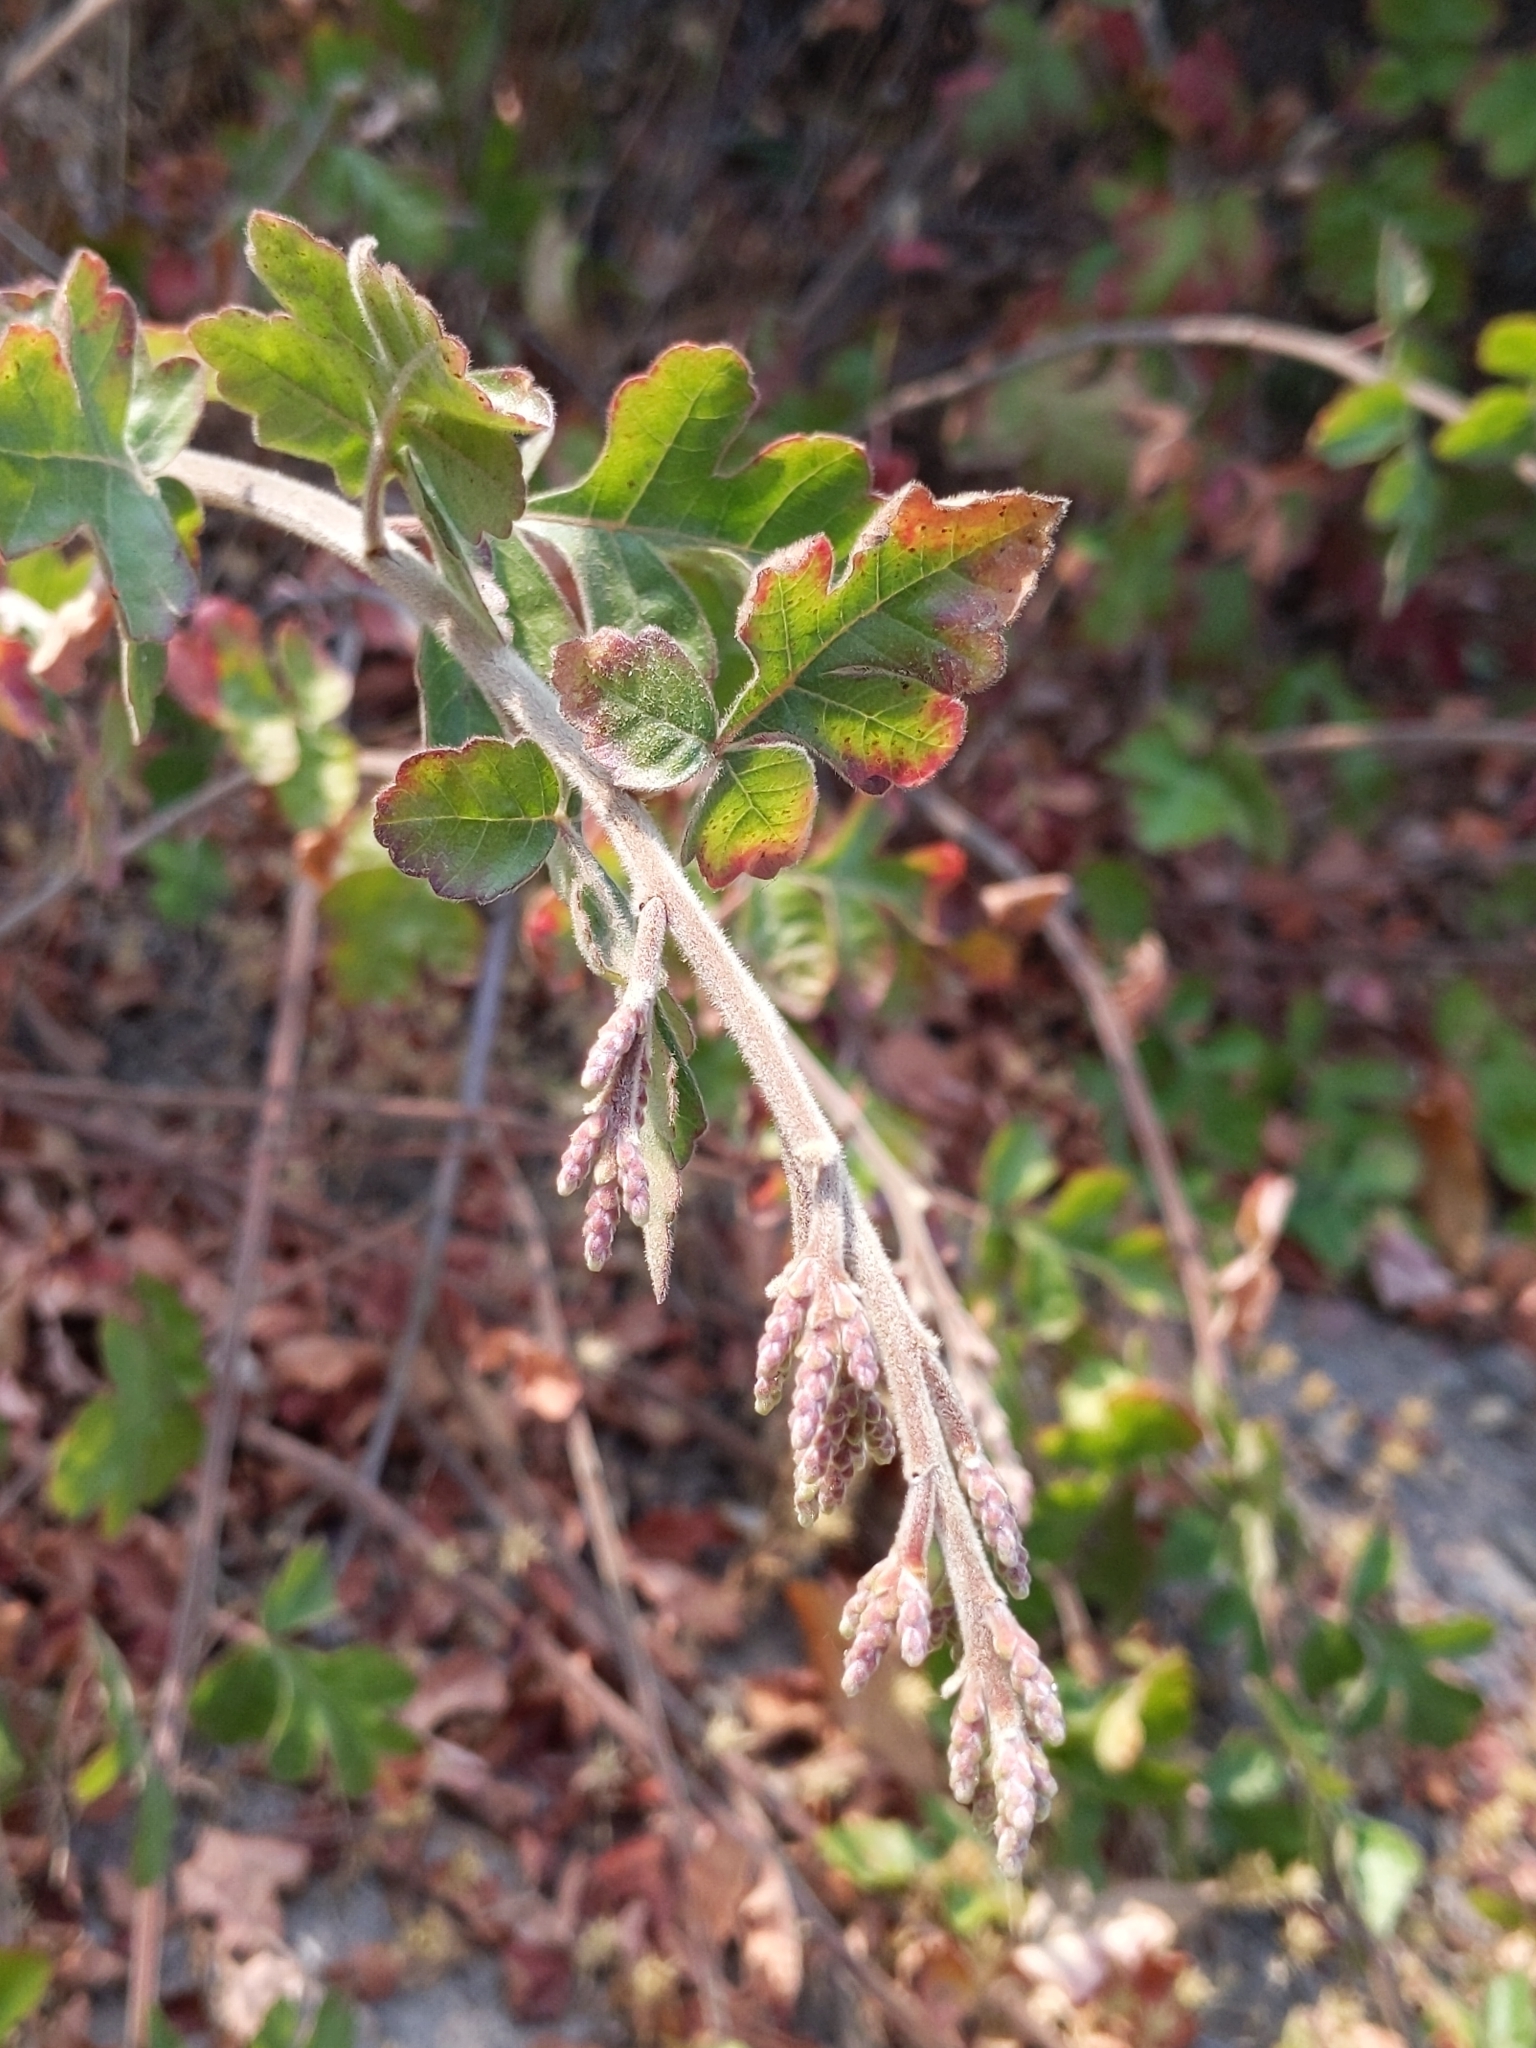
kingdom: Plantae
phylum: Tracheophyta
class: Magnoliopsida
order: Sapindales
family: Anacardiaceae
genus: Rhus
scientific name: Rhus aromatica
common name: Aromatic sumac
